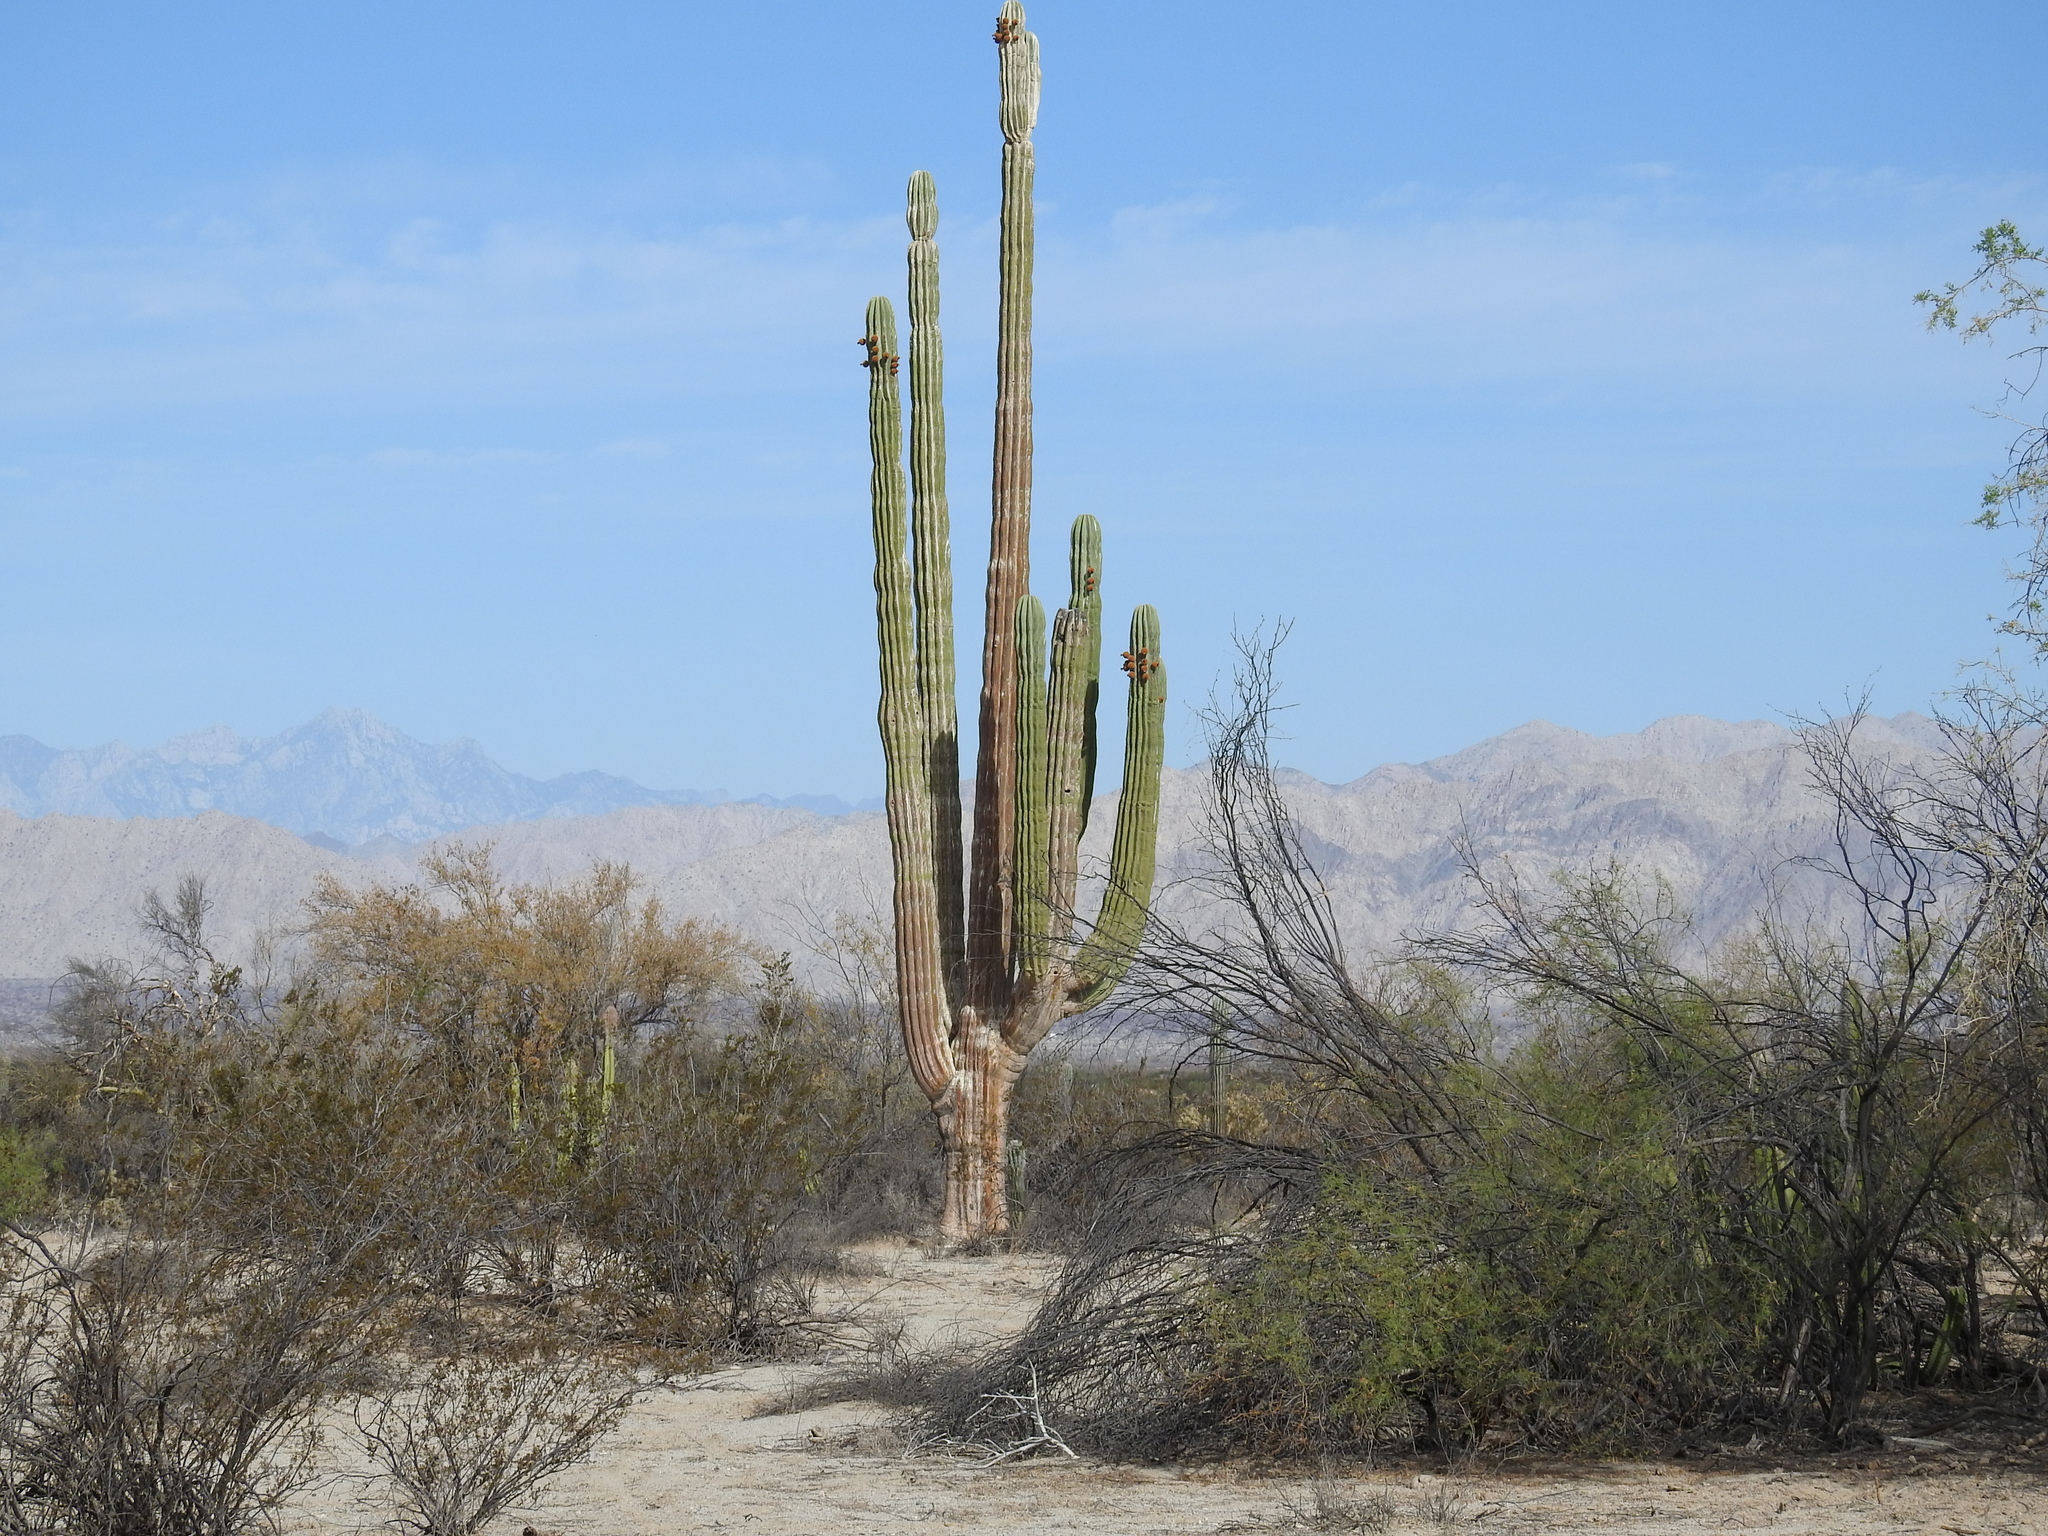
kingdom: Plantae
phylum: Tracheophyta
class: Magnoliopsida
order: Caryophyllales
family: Cactaceae
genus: Pachycereus
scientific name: Pachycereus pringlei
